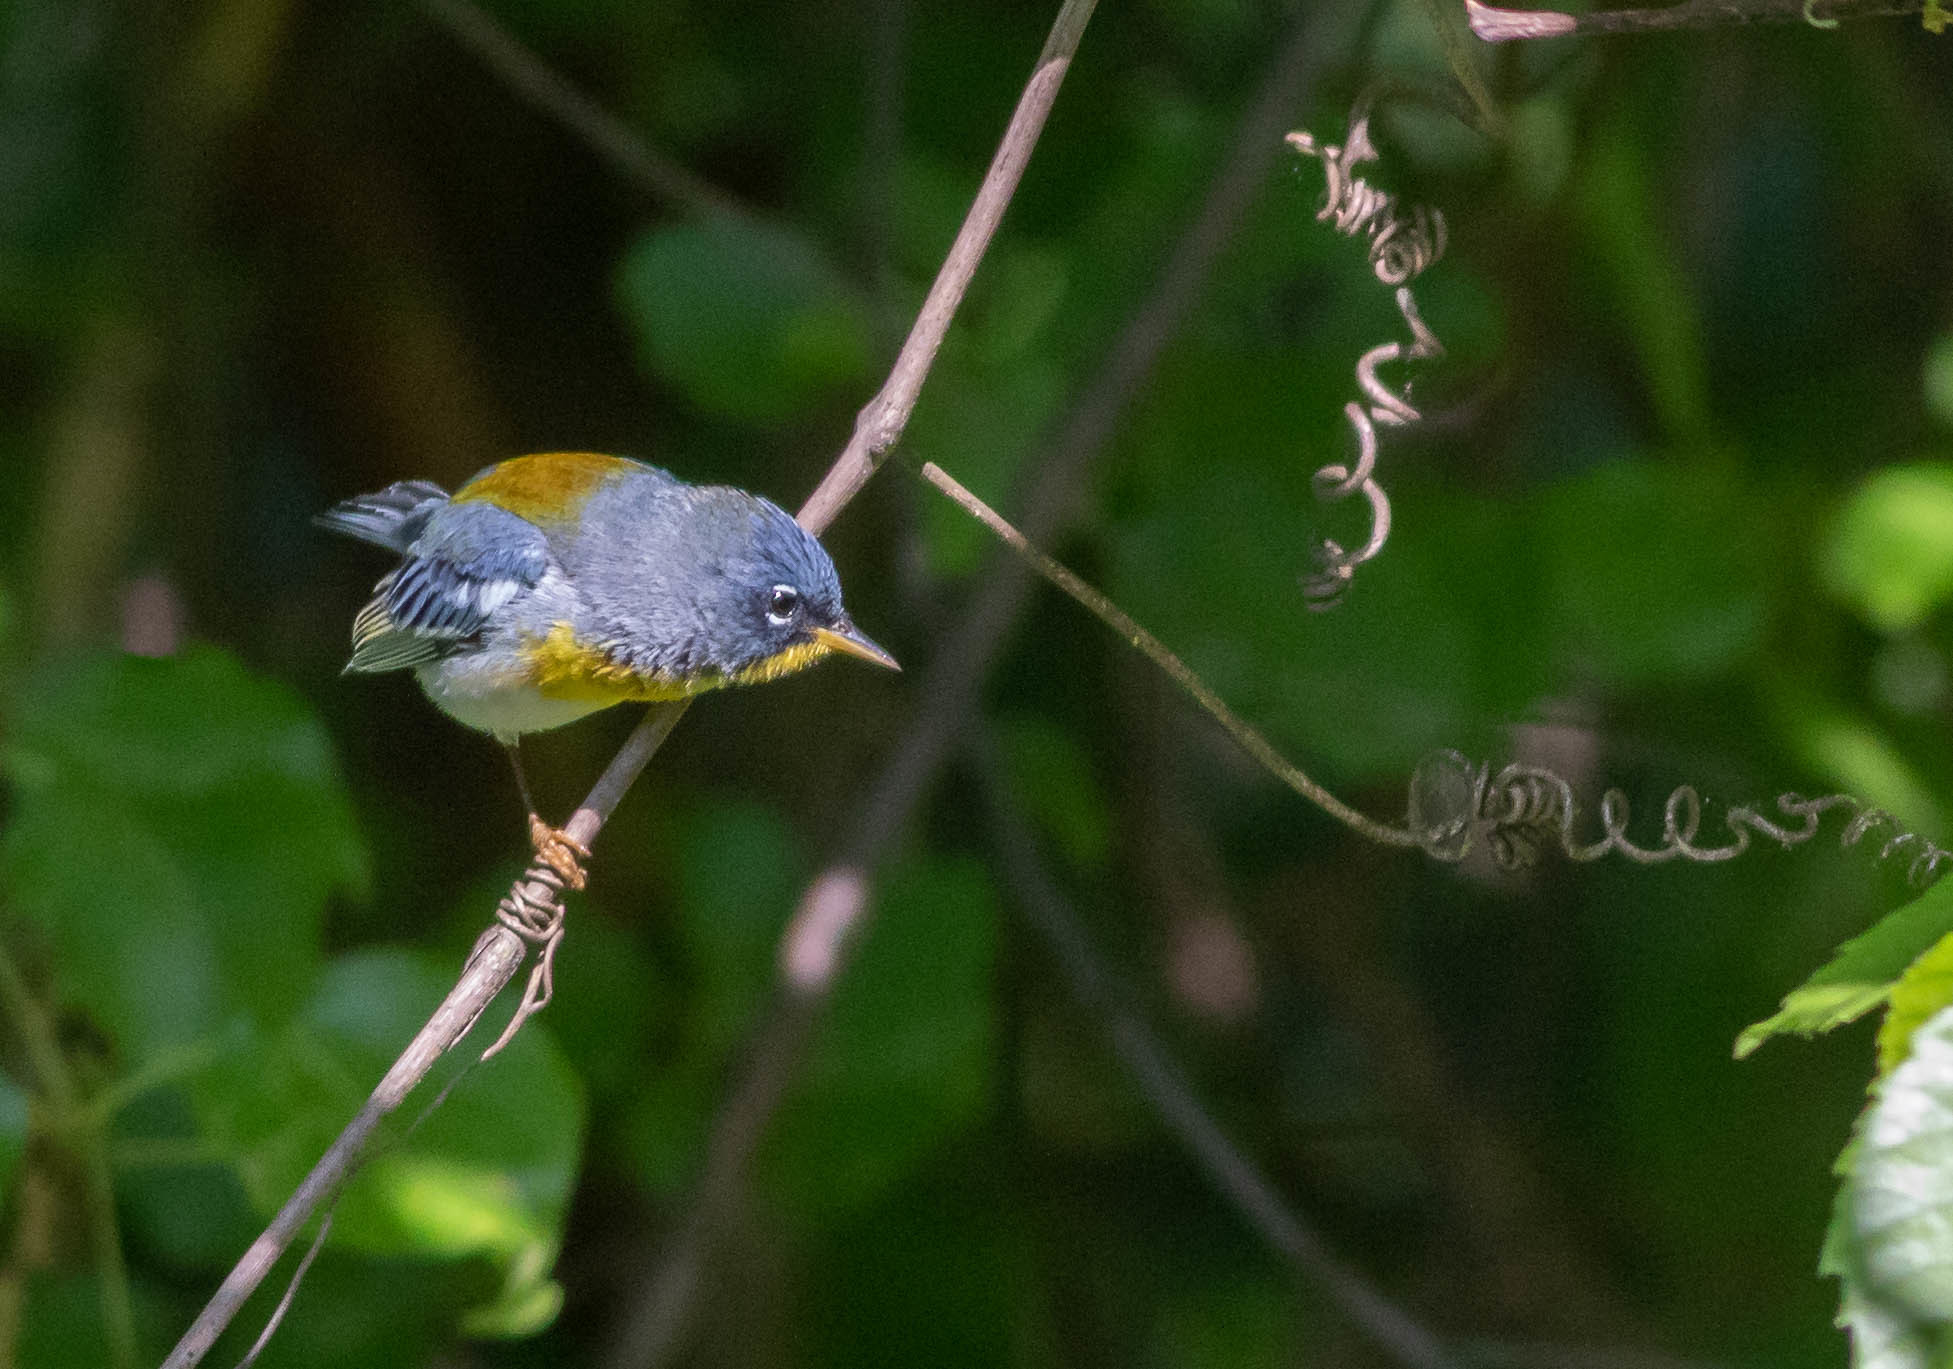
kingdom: Animalia
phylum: Chordata
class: Aves
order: Passeriformes
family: Parulidae
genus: Setophaga
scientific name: Setophaga americana
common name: Northern parula
